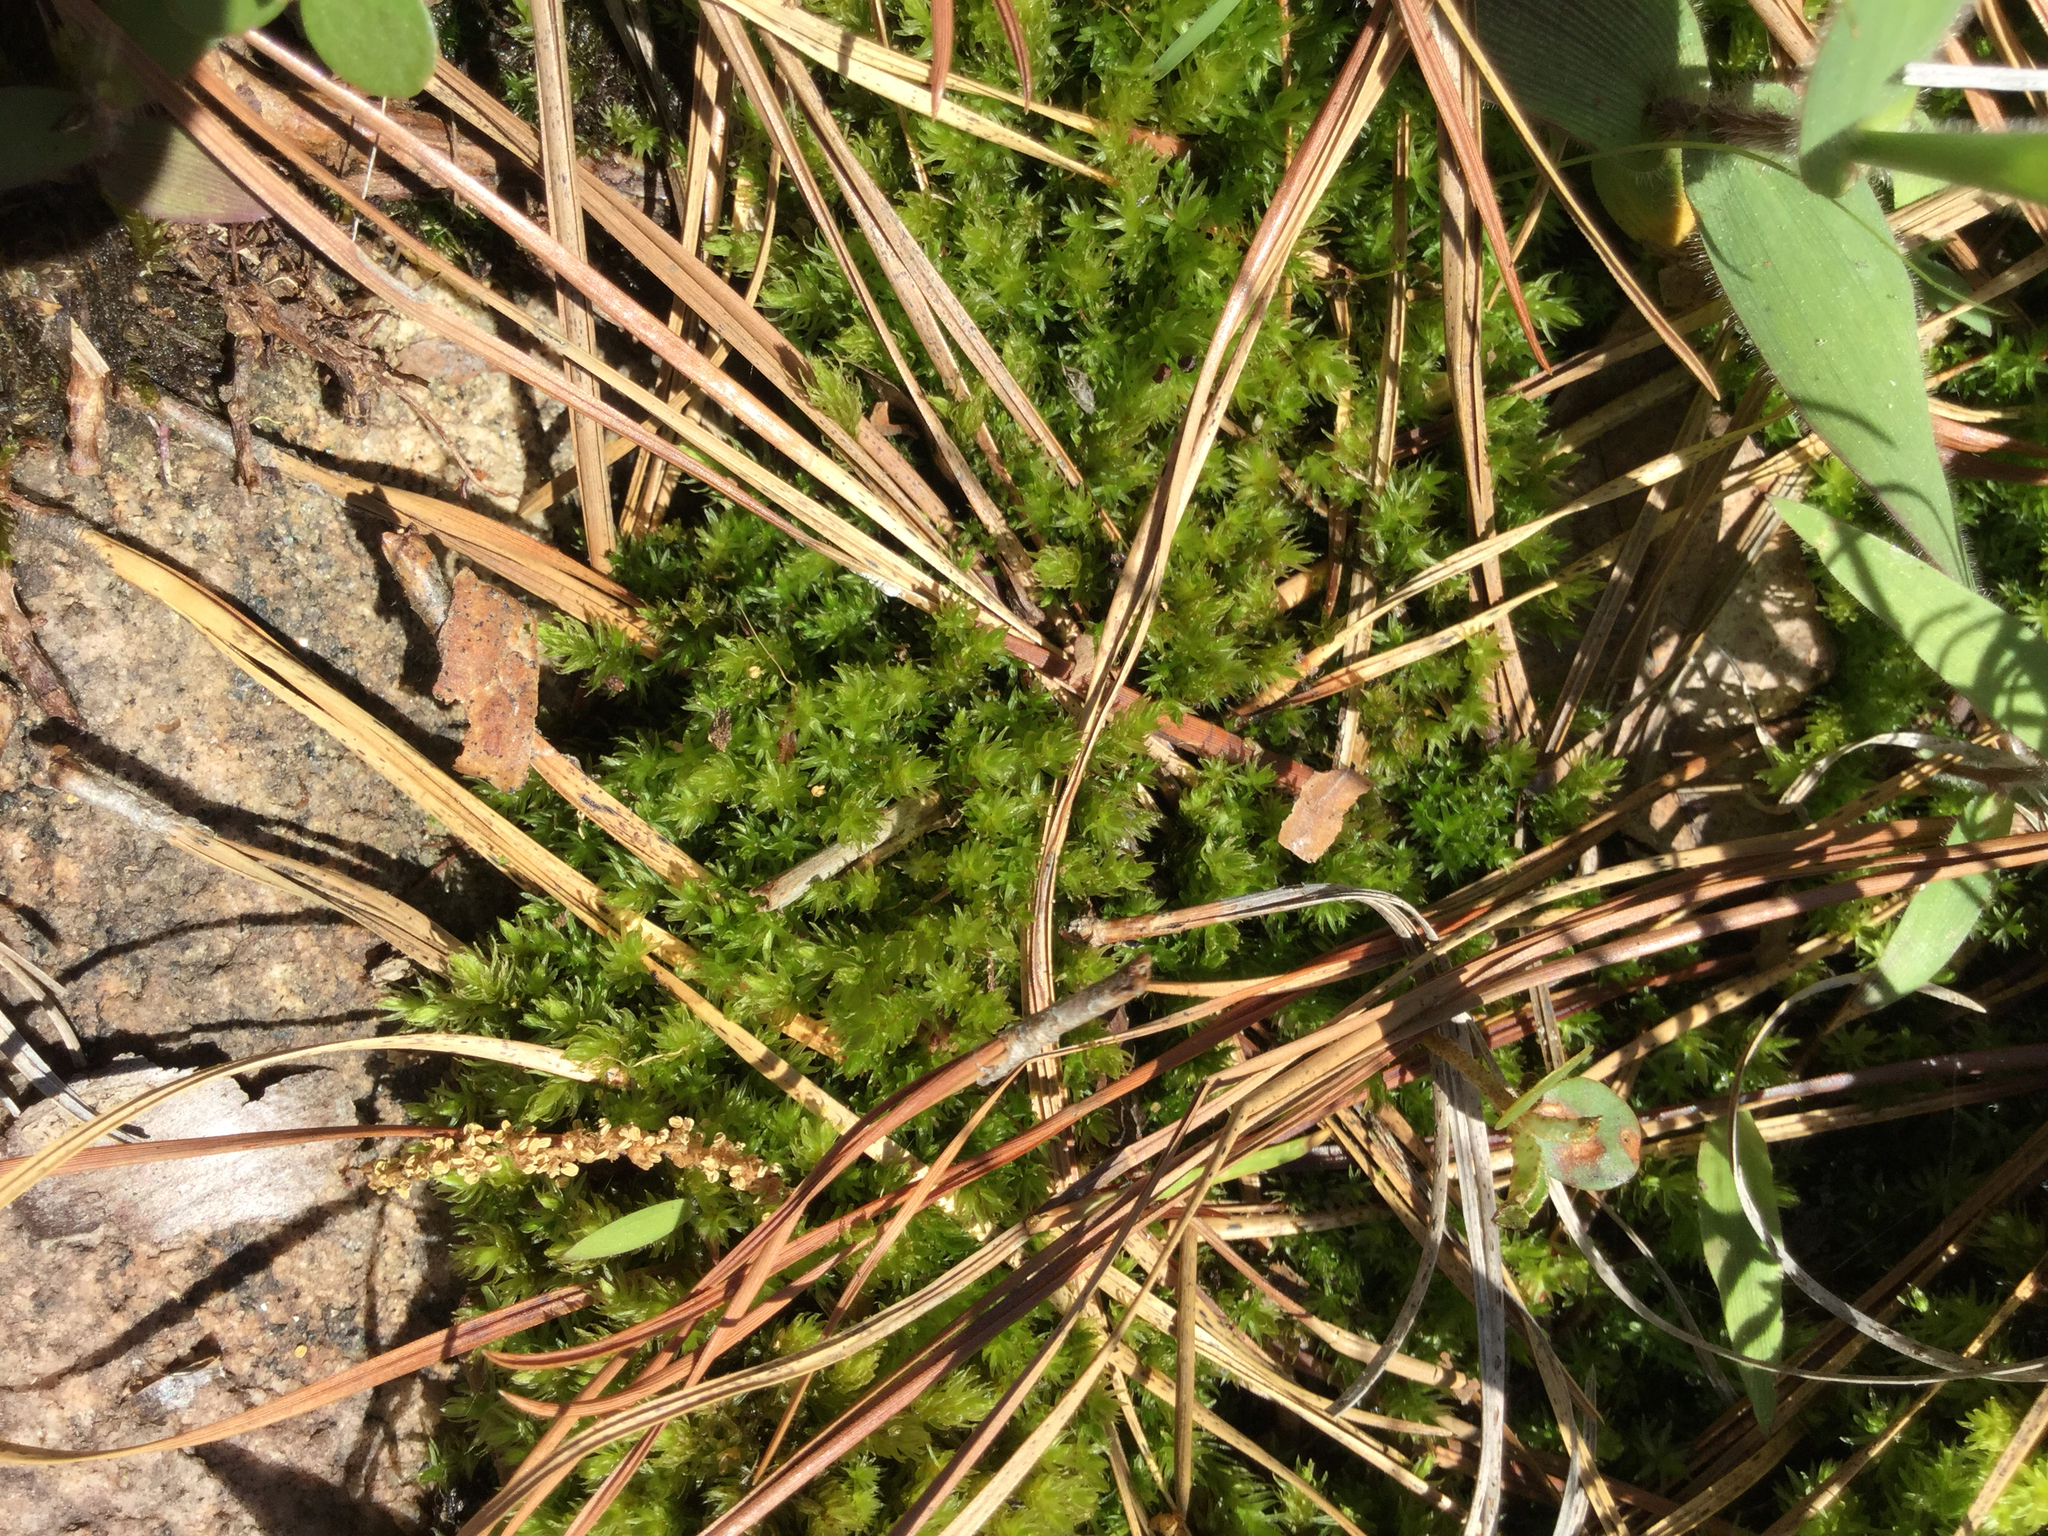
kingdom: Plantae
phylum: Bryophyta
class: Bryopsida
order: Grimmiales
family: Grimmiaceae
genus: Grimmia
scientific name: Grimmia laevigata
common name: Hoary grimmia
